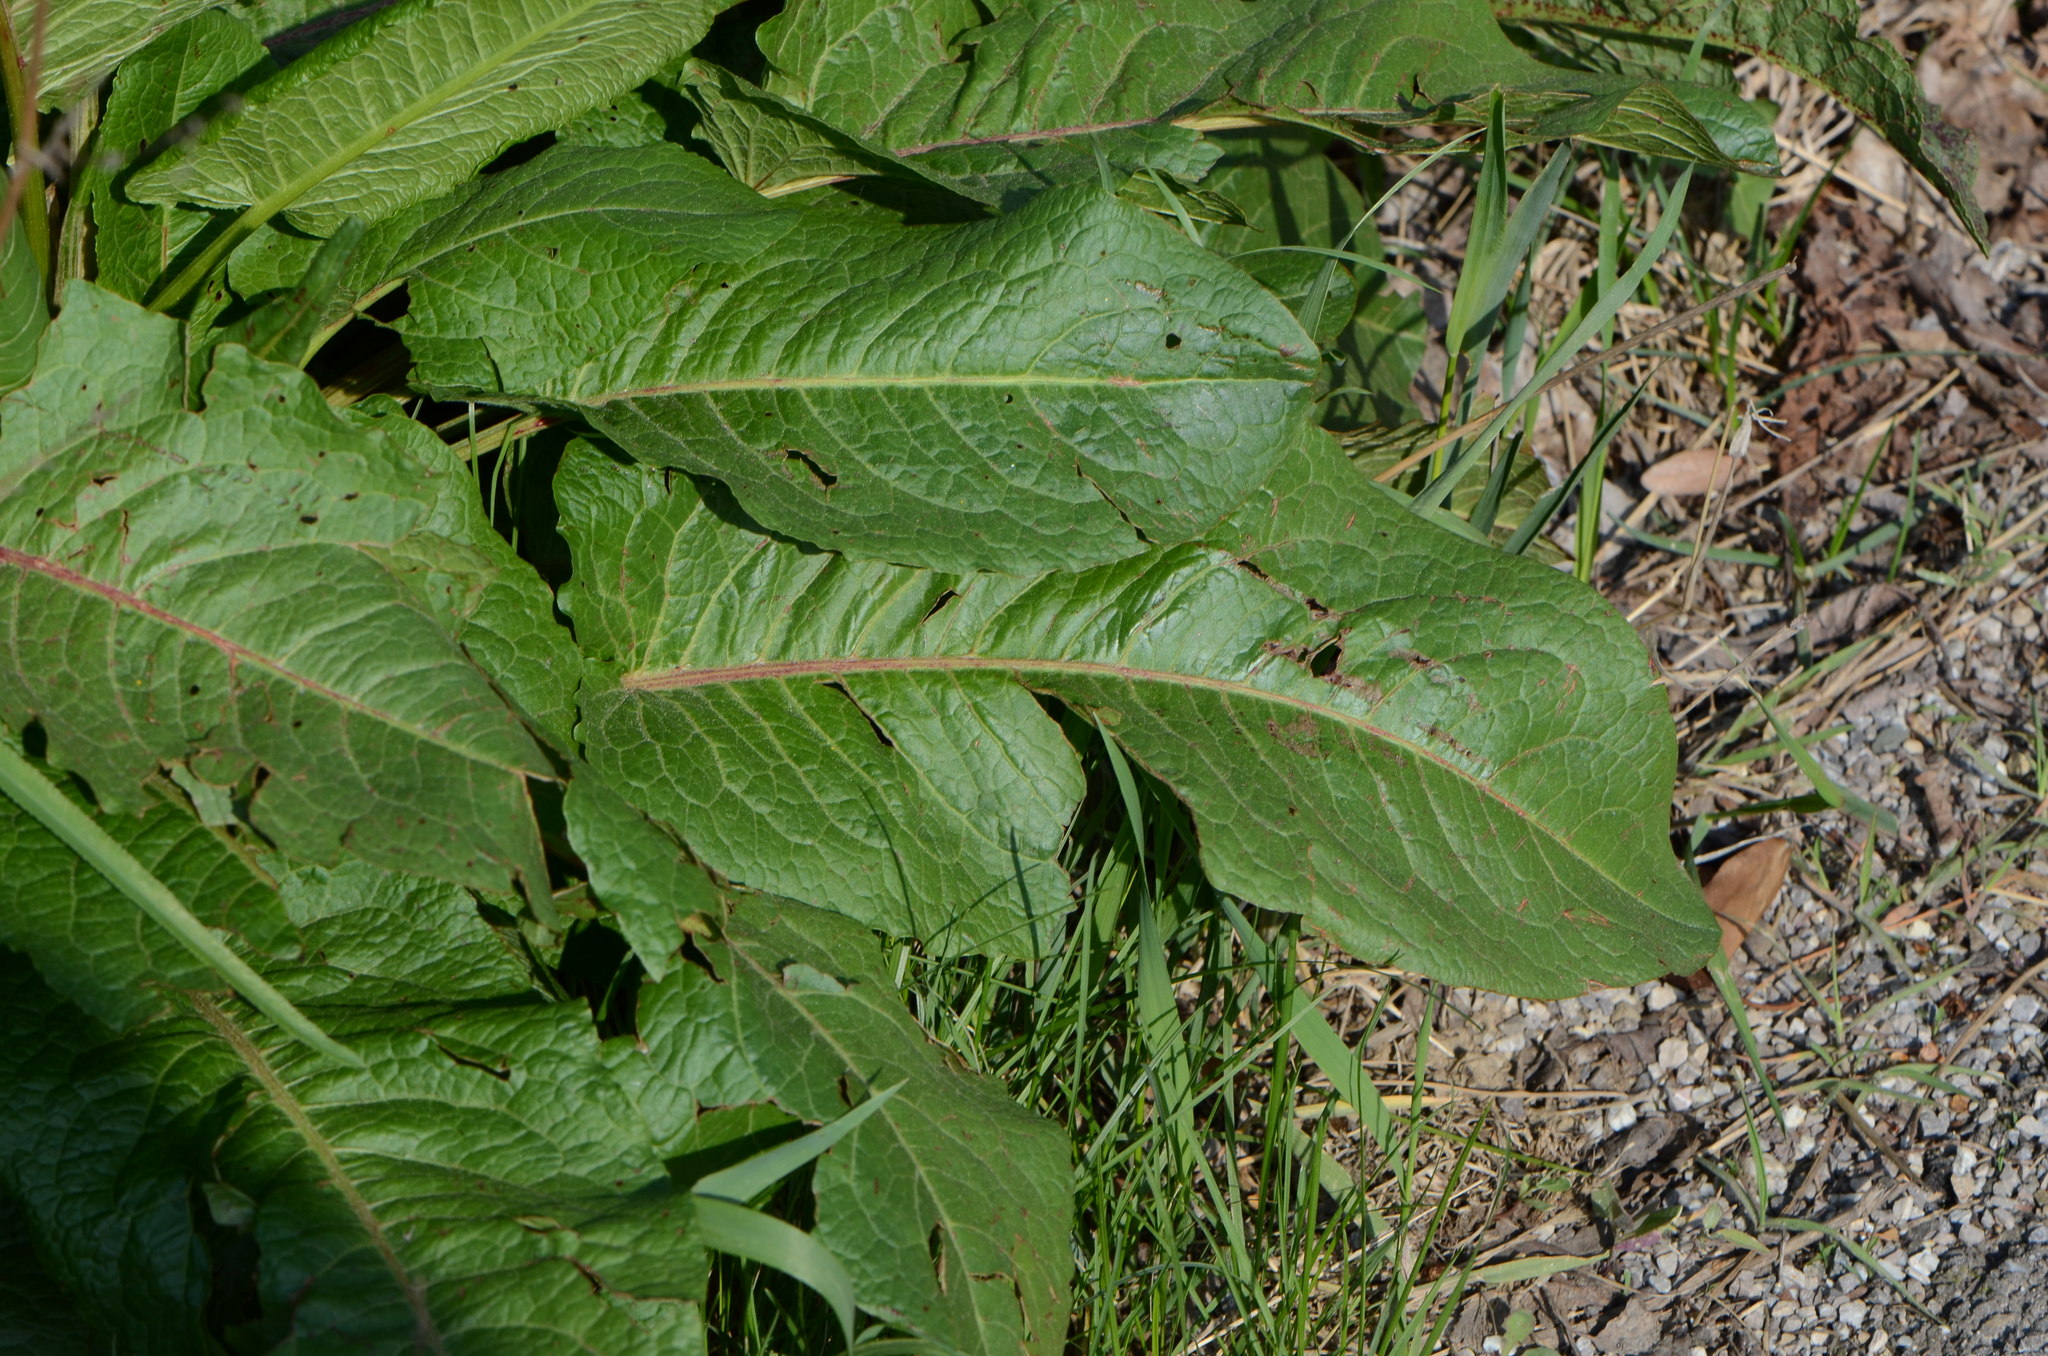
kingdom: Plantae
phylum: Tracheophyta
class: Magnoliopsida
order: Caryophyllales
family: Polygonaceae
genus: Rumex
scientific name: Rumex obtusifolius
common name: Bitter dock
